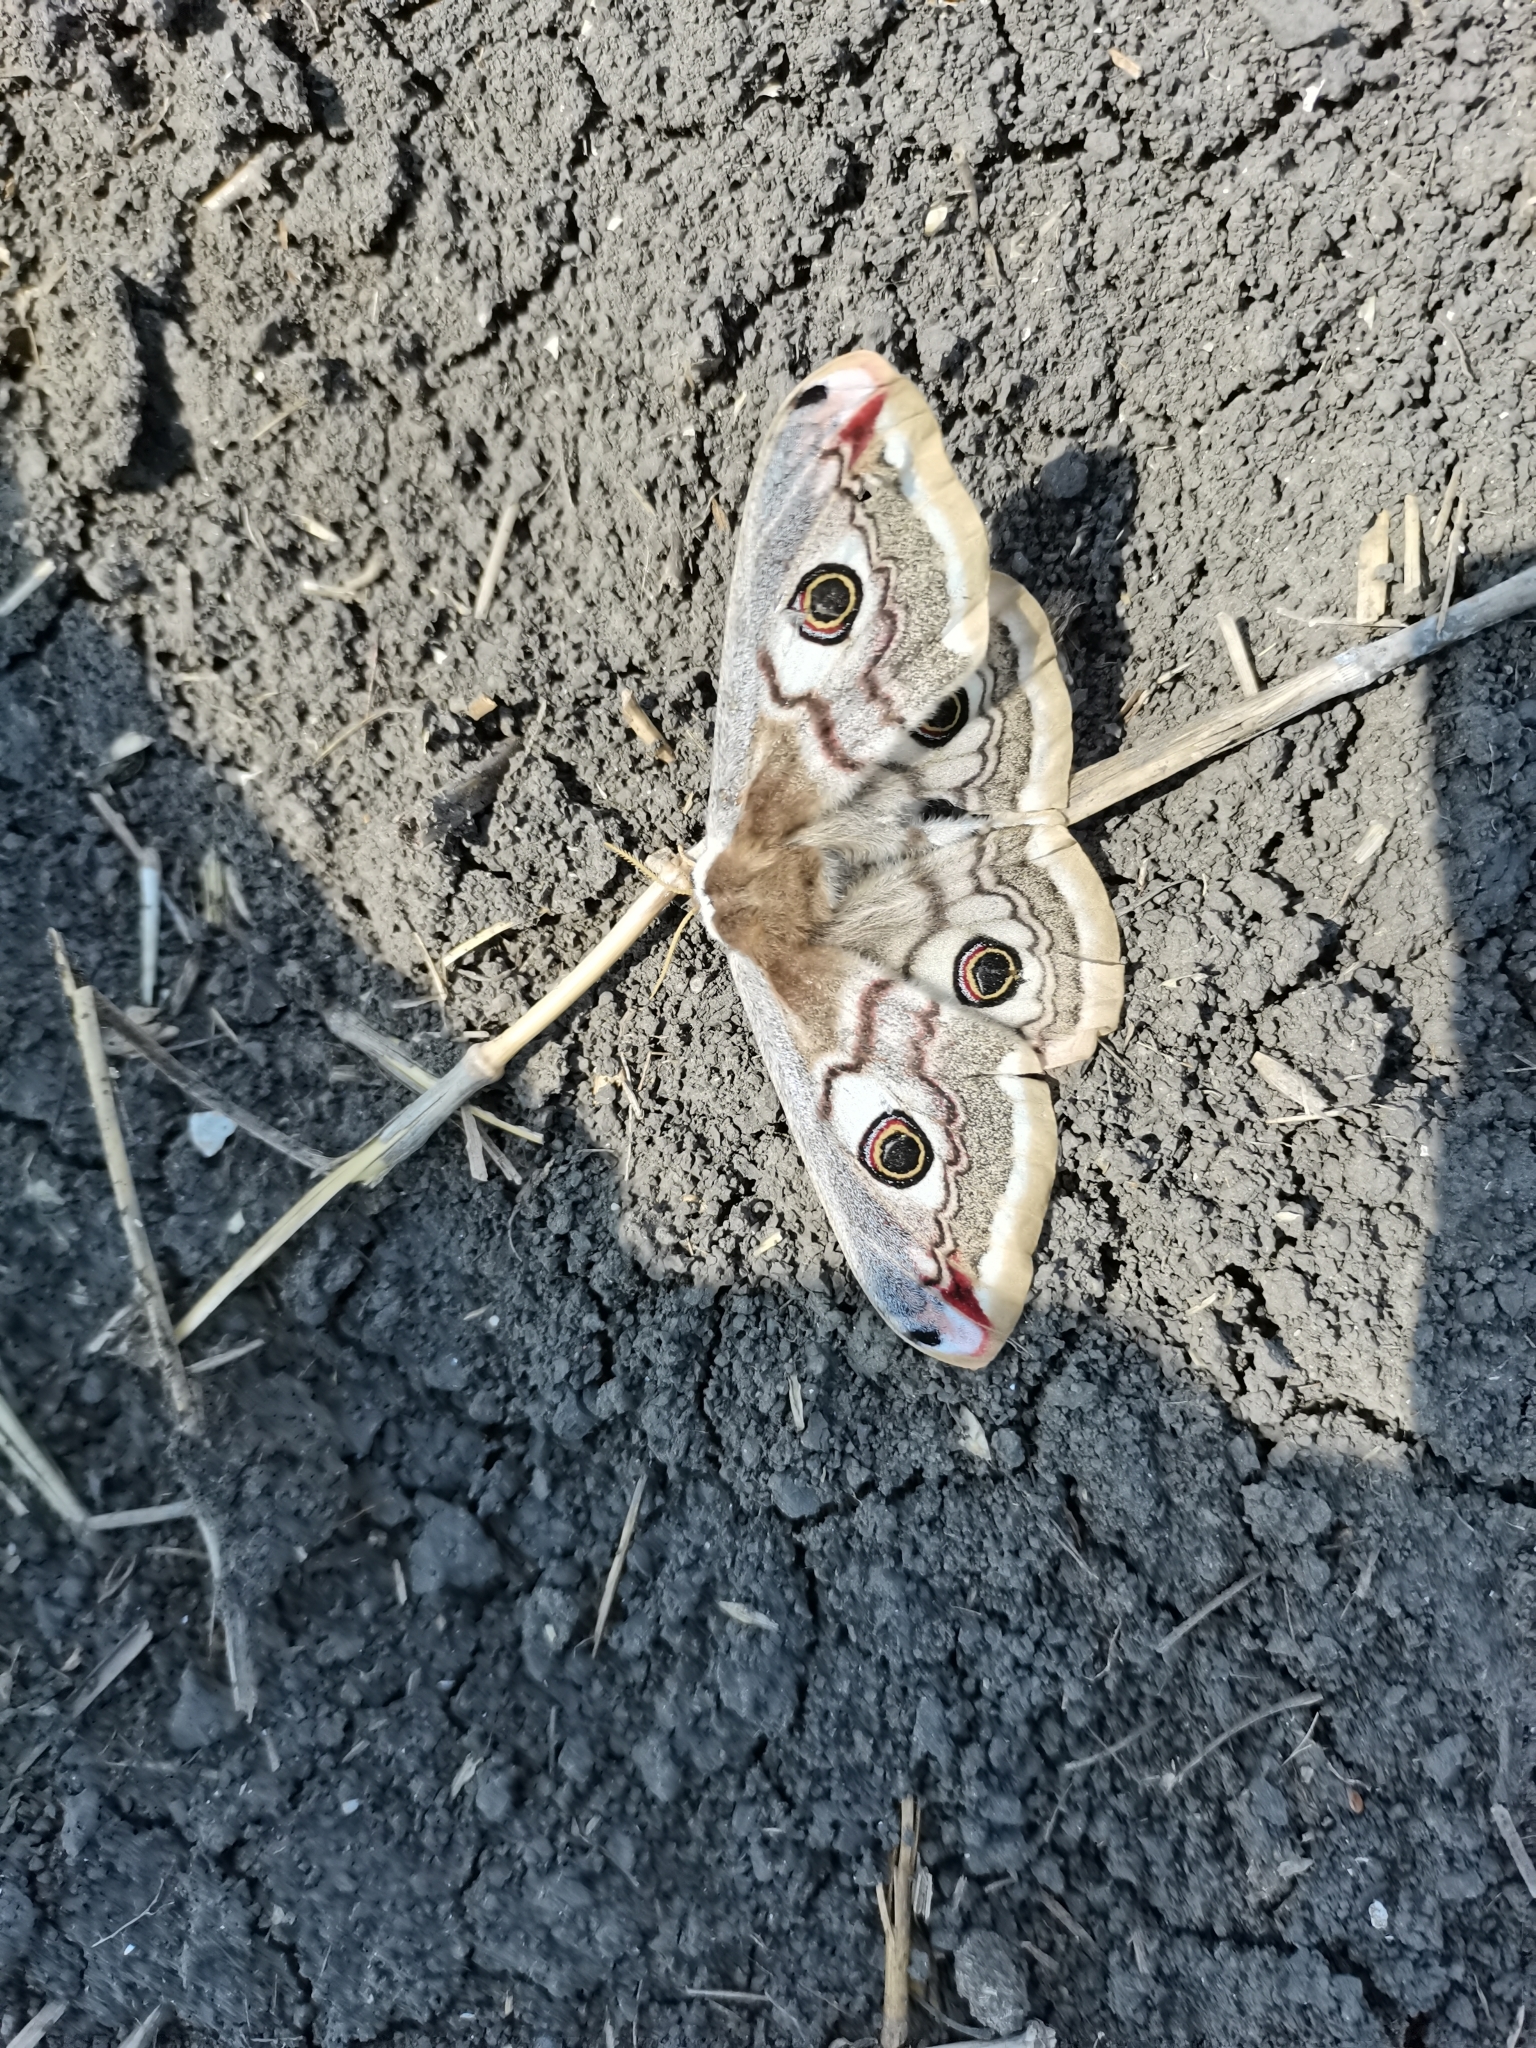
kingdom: Animalia
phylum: Arthropoda
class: Insecta
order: Lepidoptera
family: Saturniidae
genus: Saturnia
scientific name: Saturnia pavoniella
